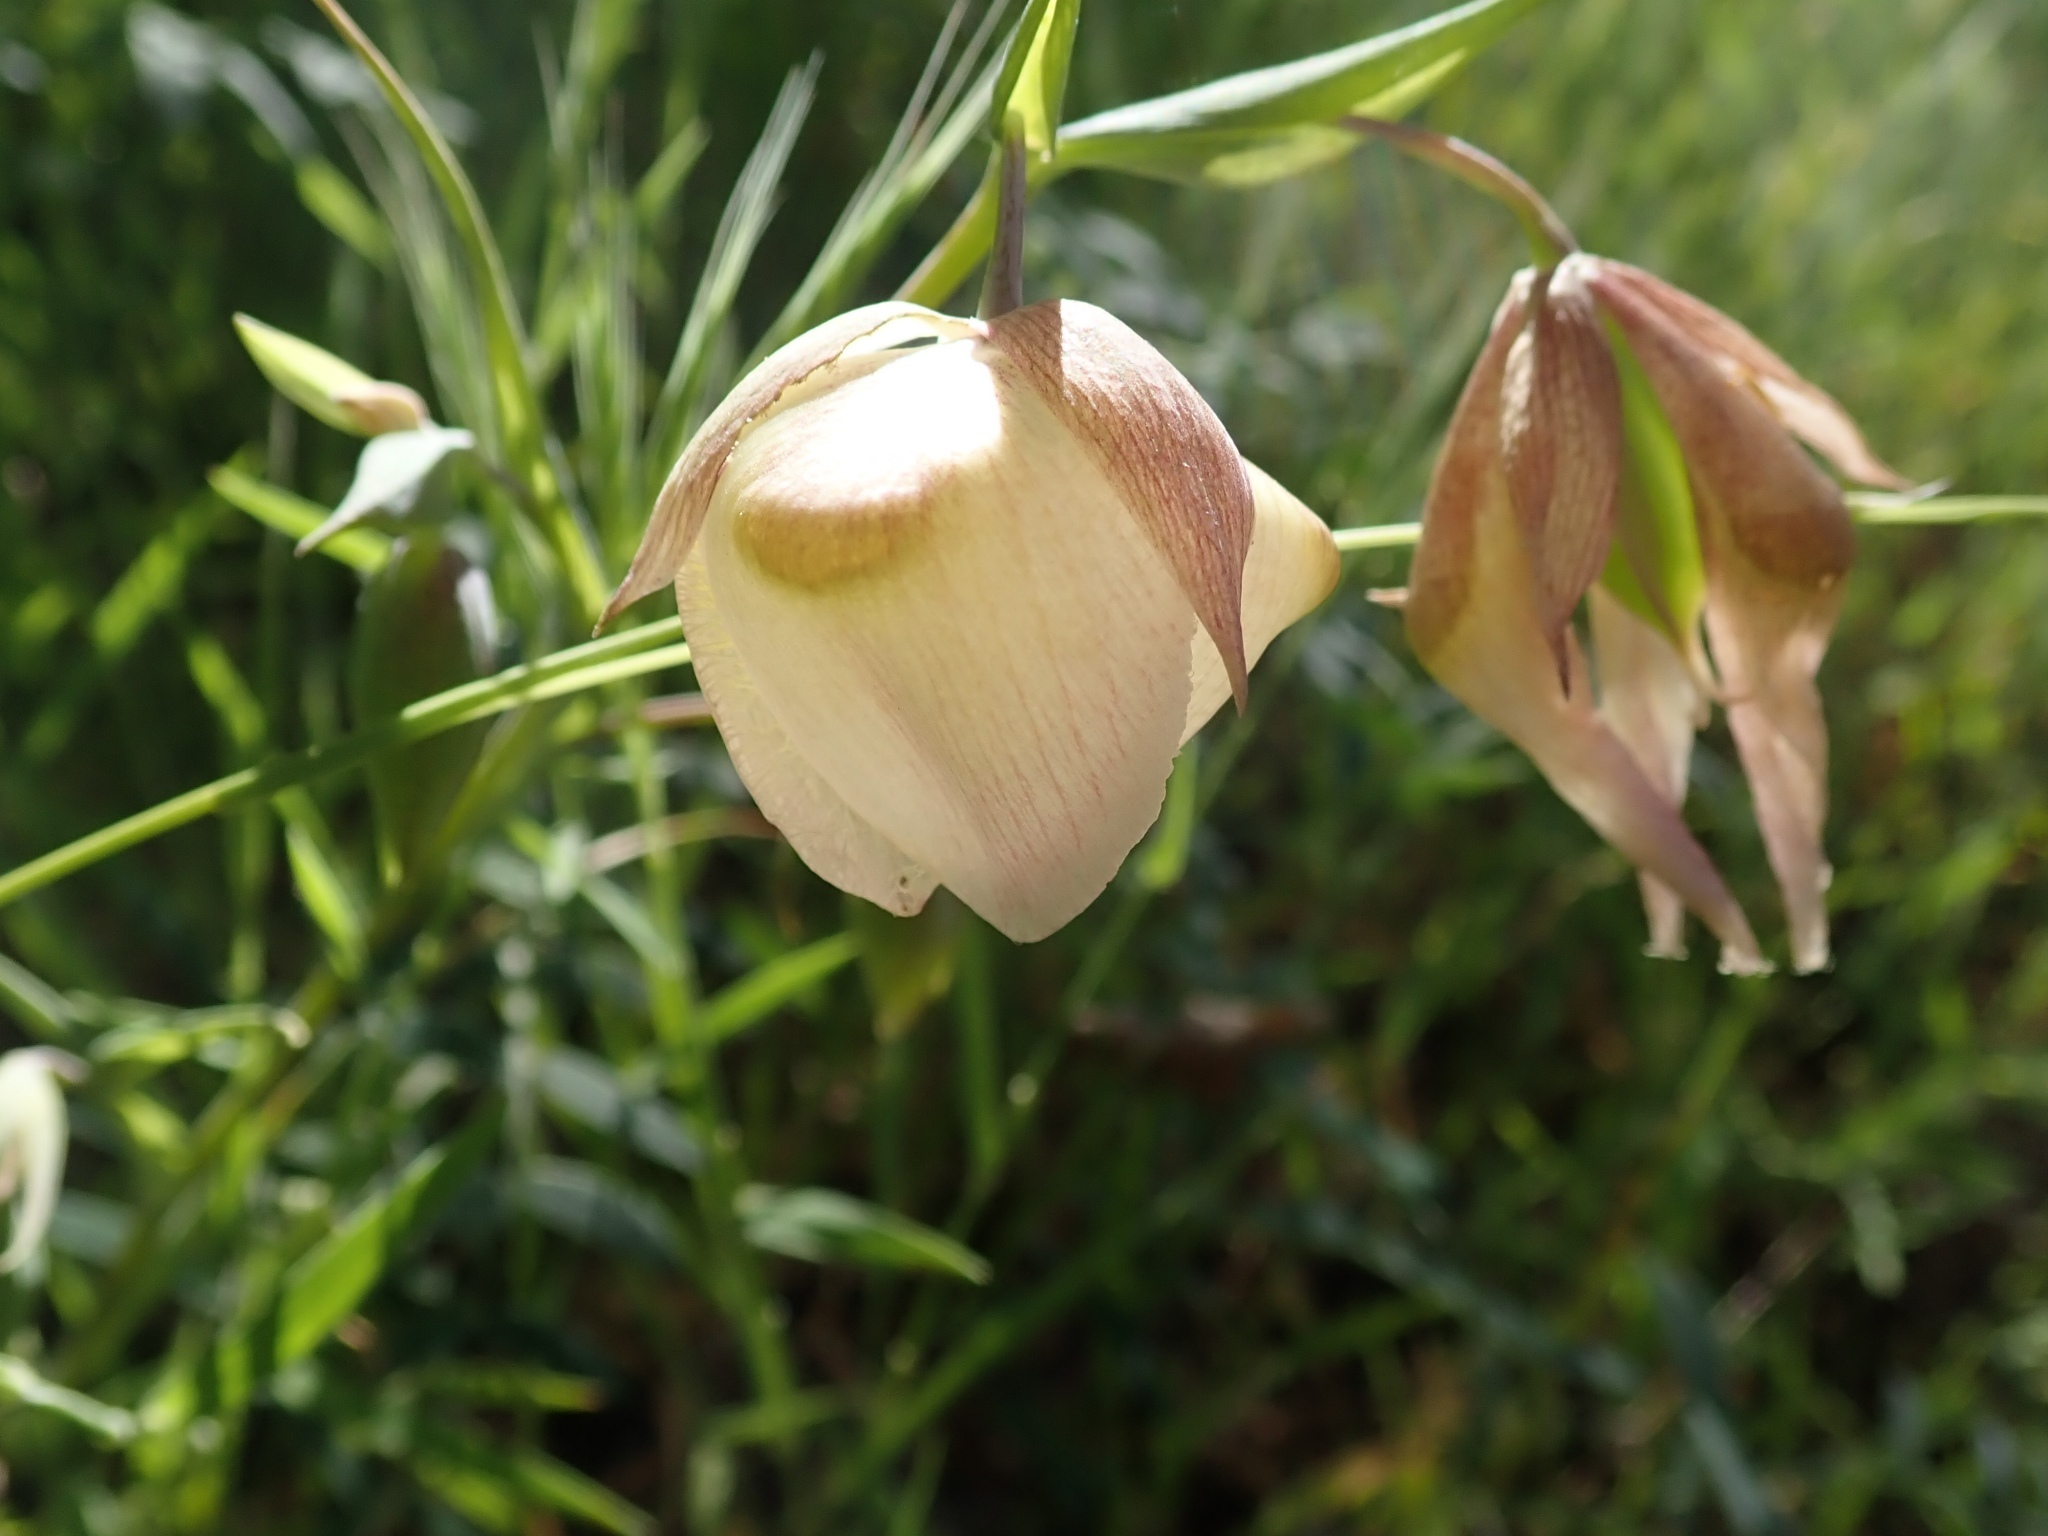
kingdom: Plantae
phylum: Tracheophyta
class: Liliopsida
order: Liliales
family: Liliaceae
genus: Calochortus
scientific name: Calochortus albus
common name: Fairy-lantern
